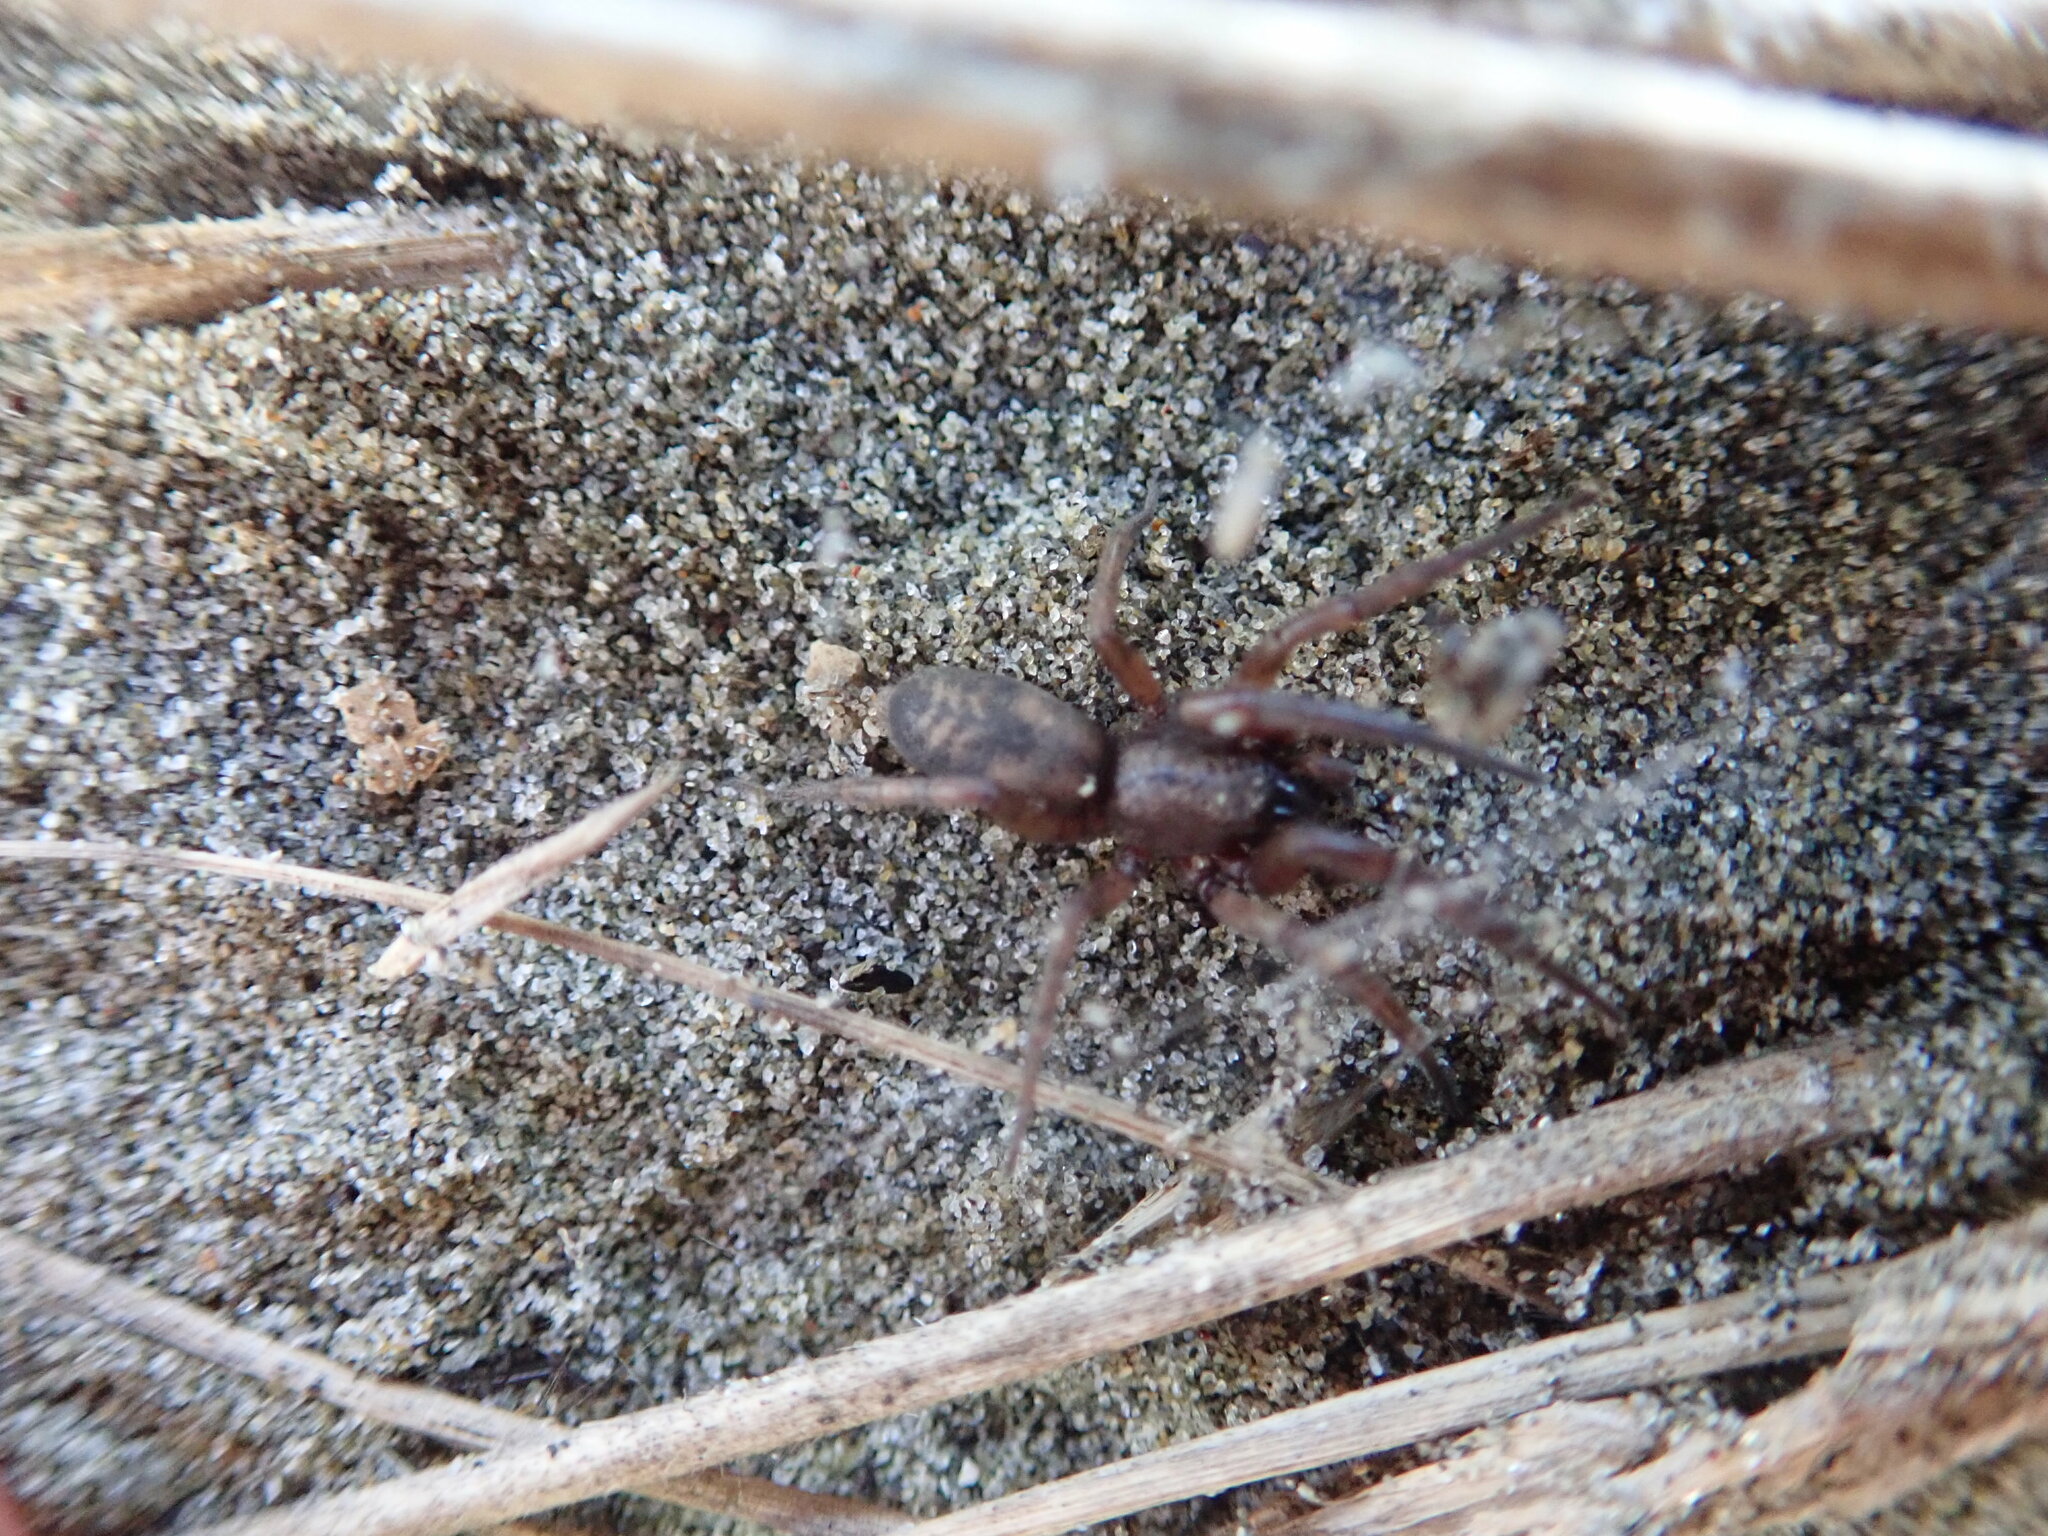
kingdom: Animalia
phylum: Arthropoda
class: Arachnida
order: Araneae
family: Gnaphosidae
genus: Intruda
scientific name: Intruda signata
